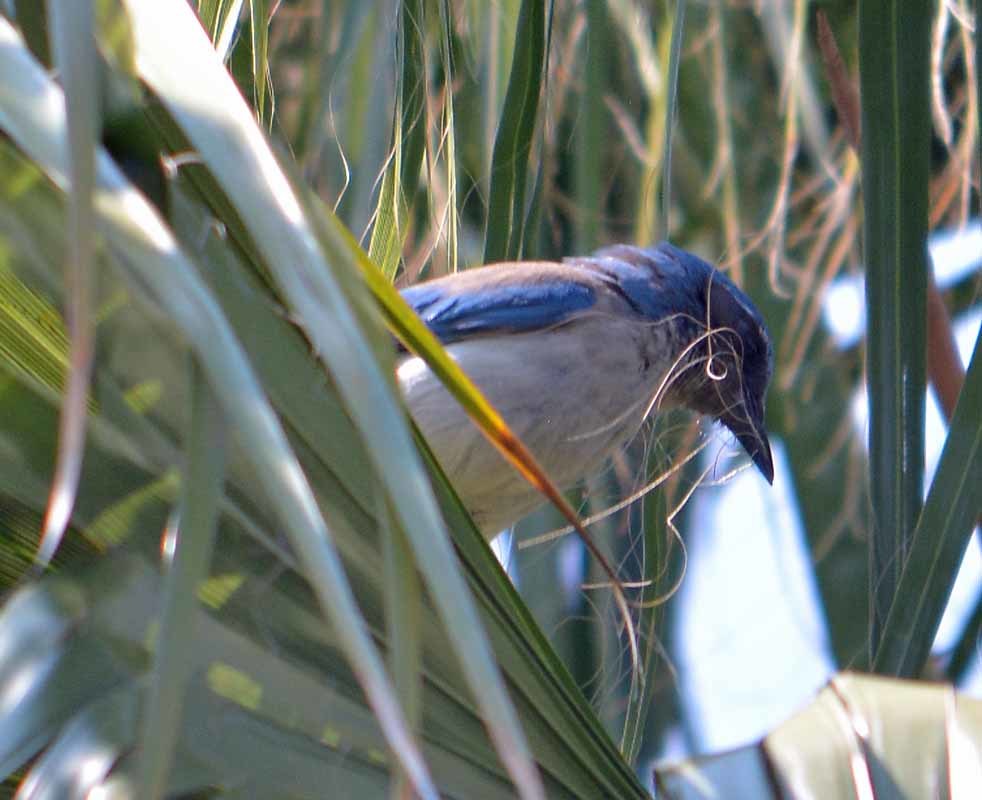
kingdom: Animalia
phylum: Chordata
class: Aves
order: Passeriformes
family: Corvidae
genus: Aphelocoma
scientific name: Aphelocoma woodhouseii
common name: Woodhouse's scrub-jay
